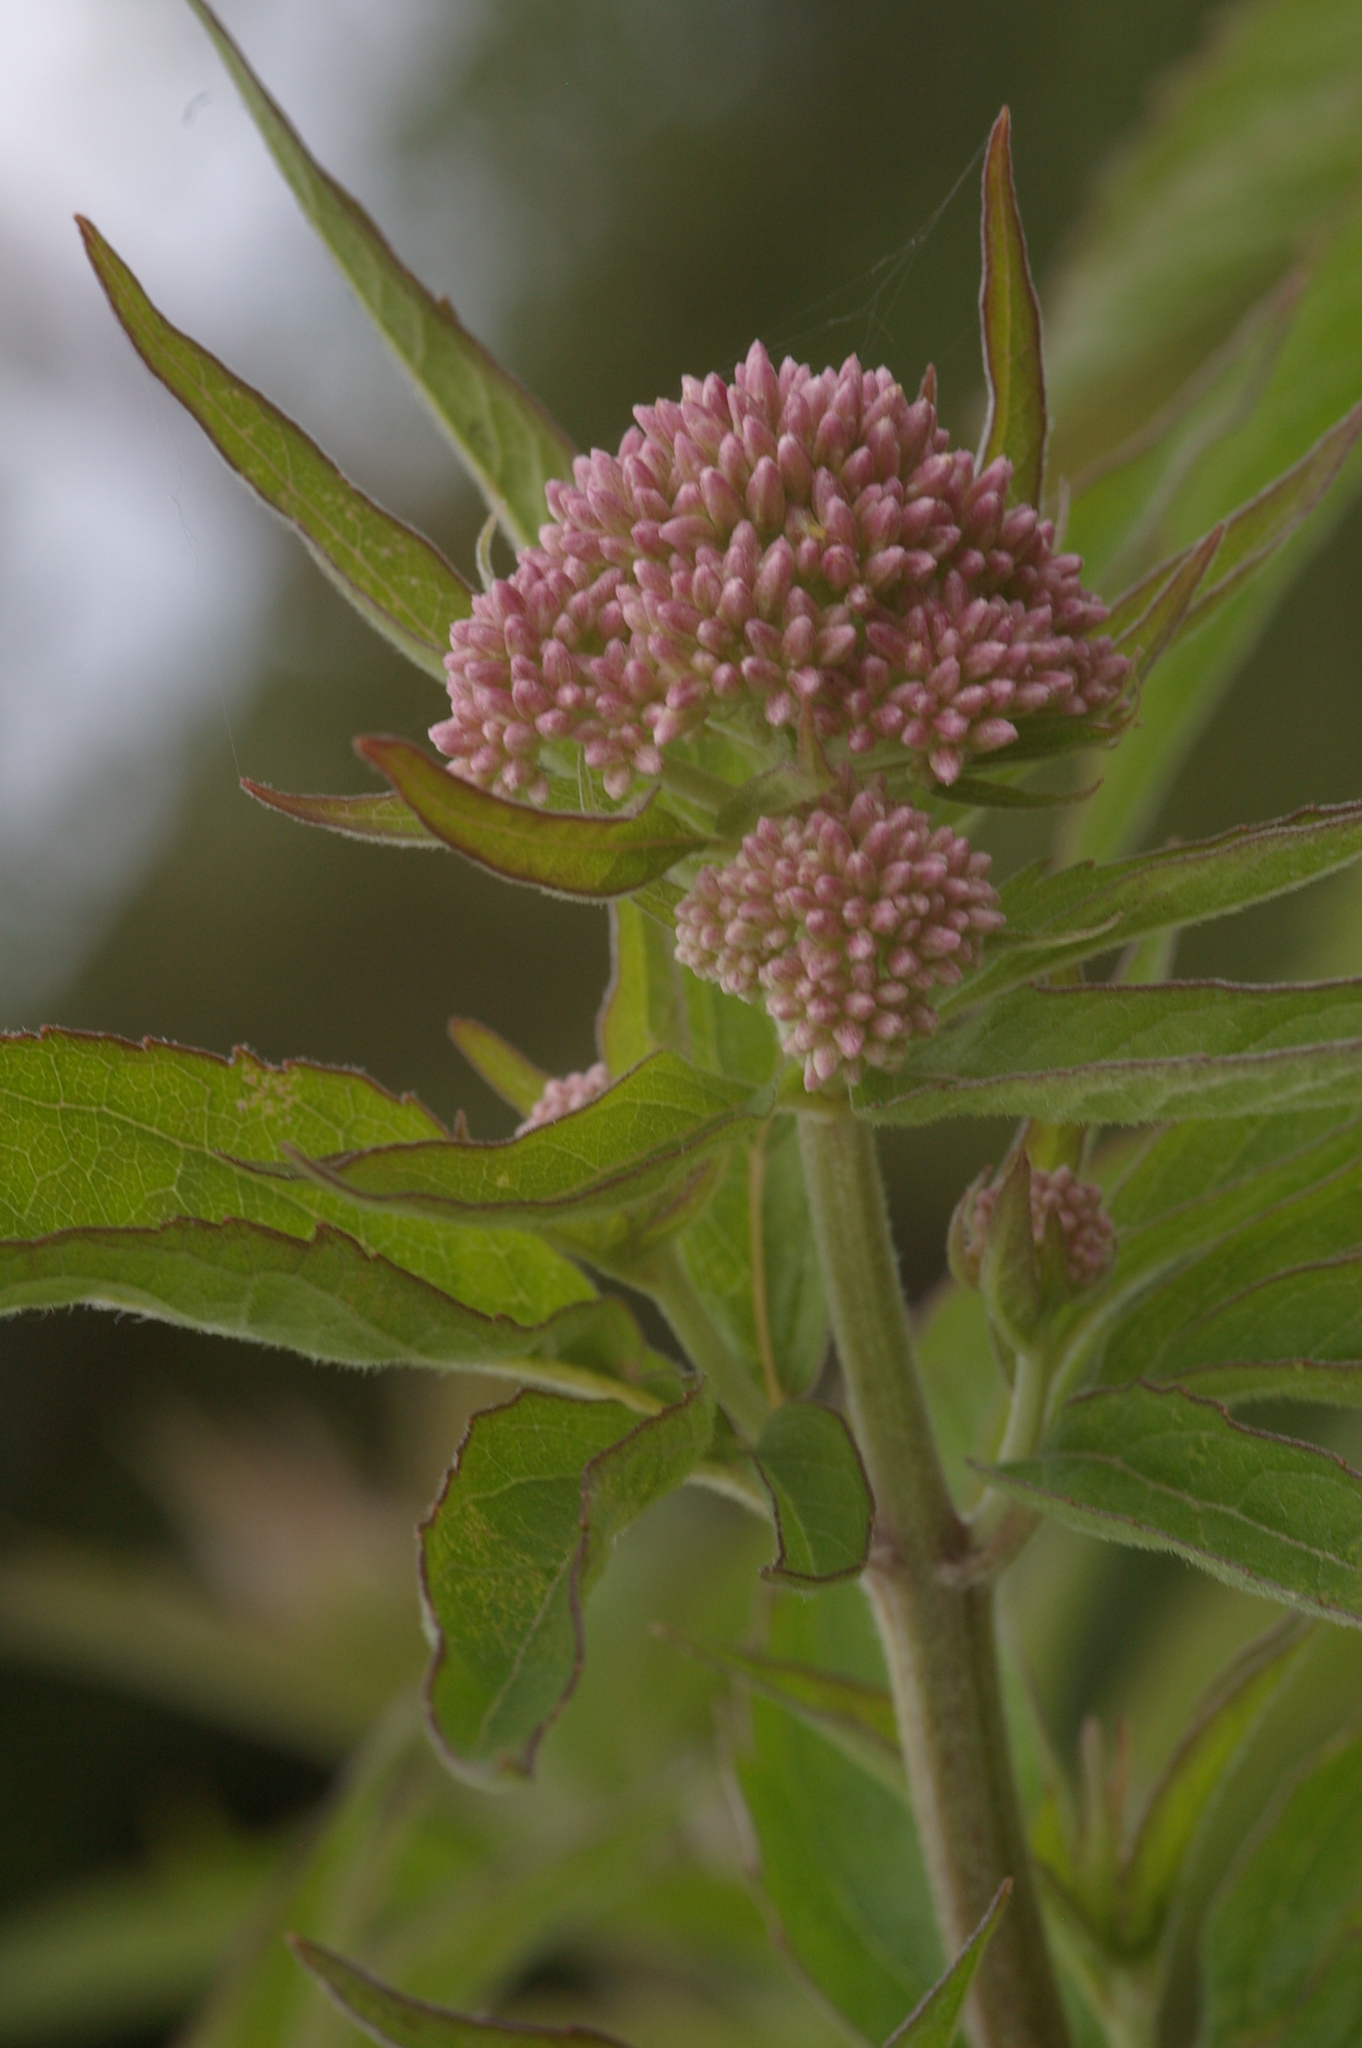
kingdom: Plantae
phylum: Tracheophyta
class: Magnoliopsida
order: Asterales
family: Asteraceae
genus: Eupatorium
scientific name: Eupatorium cannabinum
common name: Hemp-agrimony
